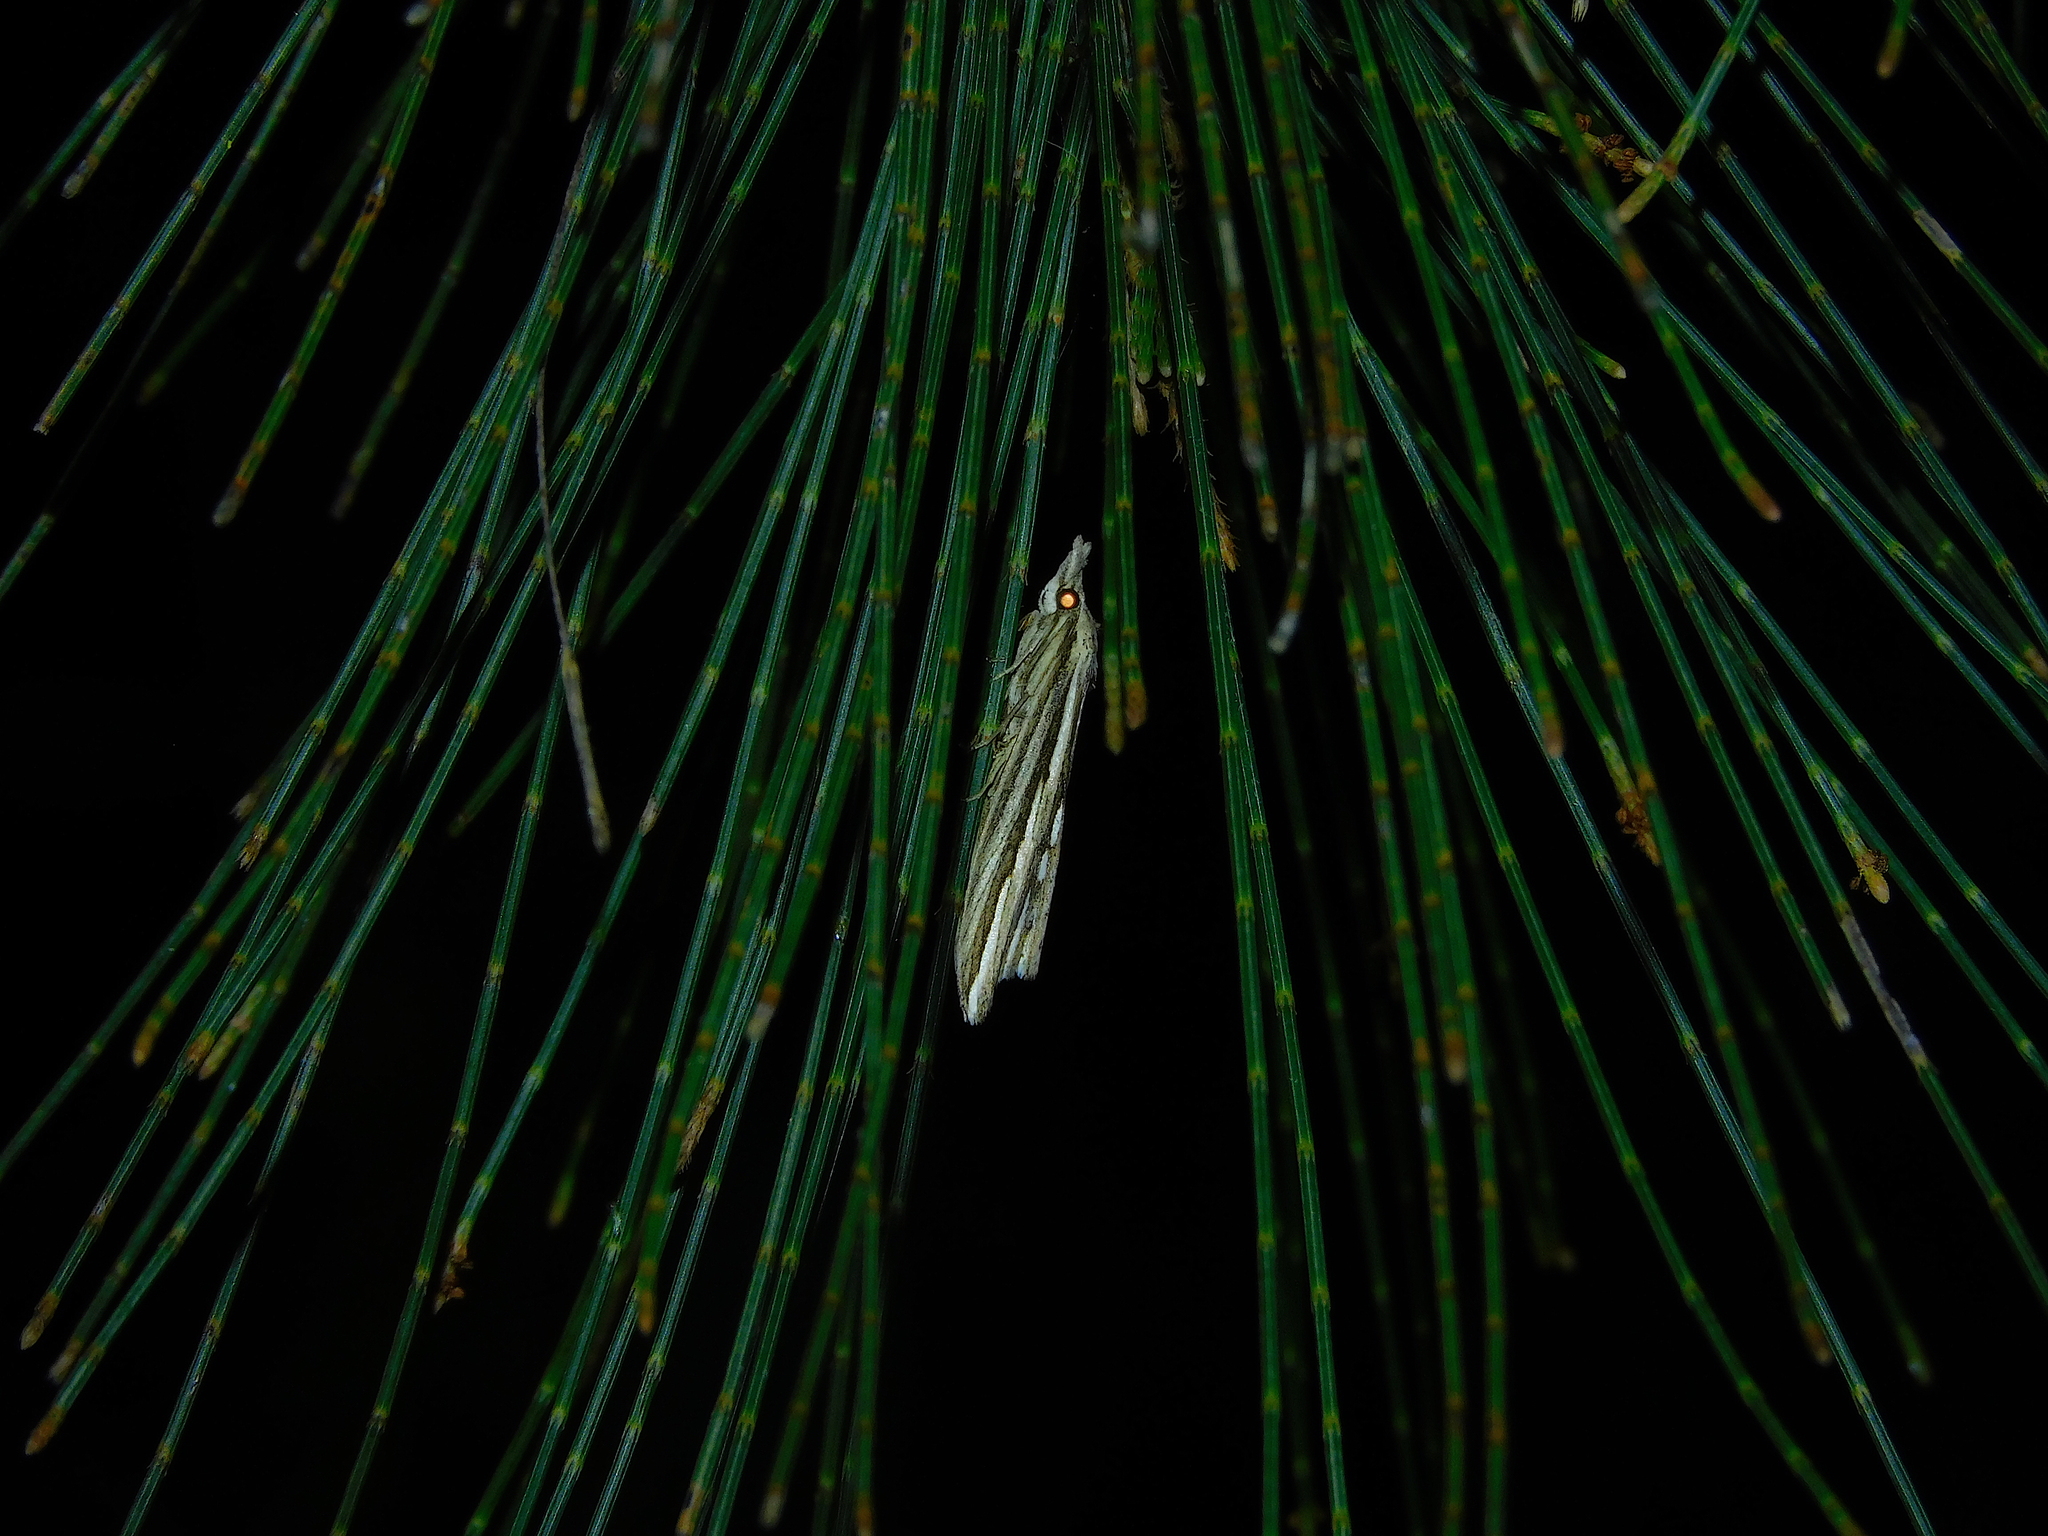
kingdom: Animalia
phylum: Arthropoda
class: Insecta
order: Lepidoptera
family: Erebidae
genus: Meyrickella
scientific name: Meyrickella ruptellus
